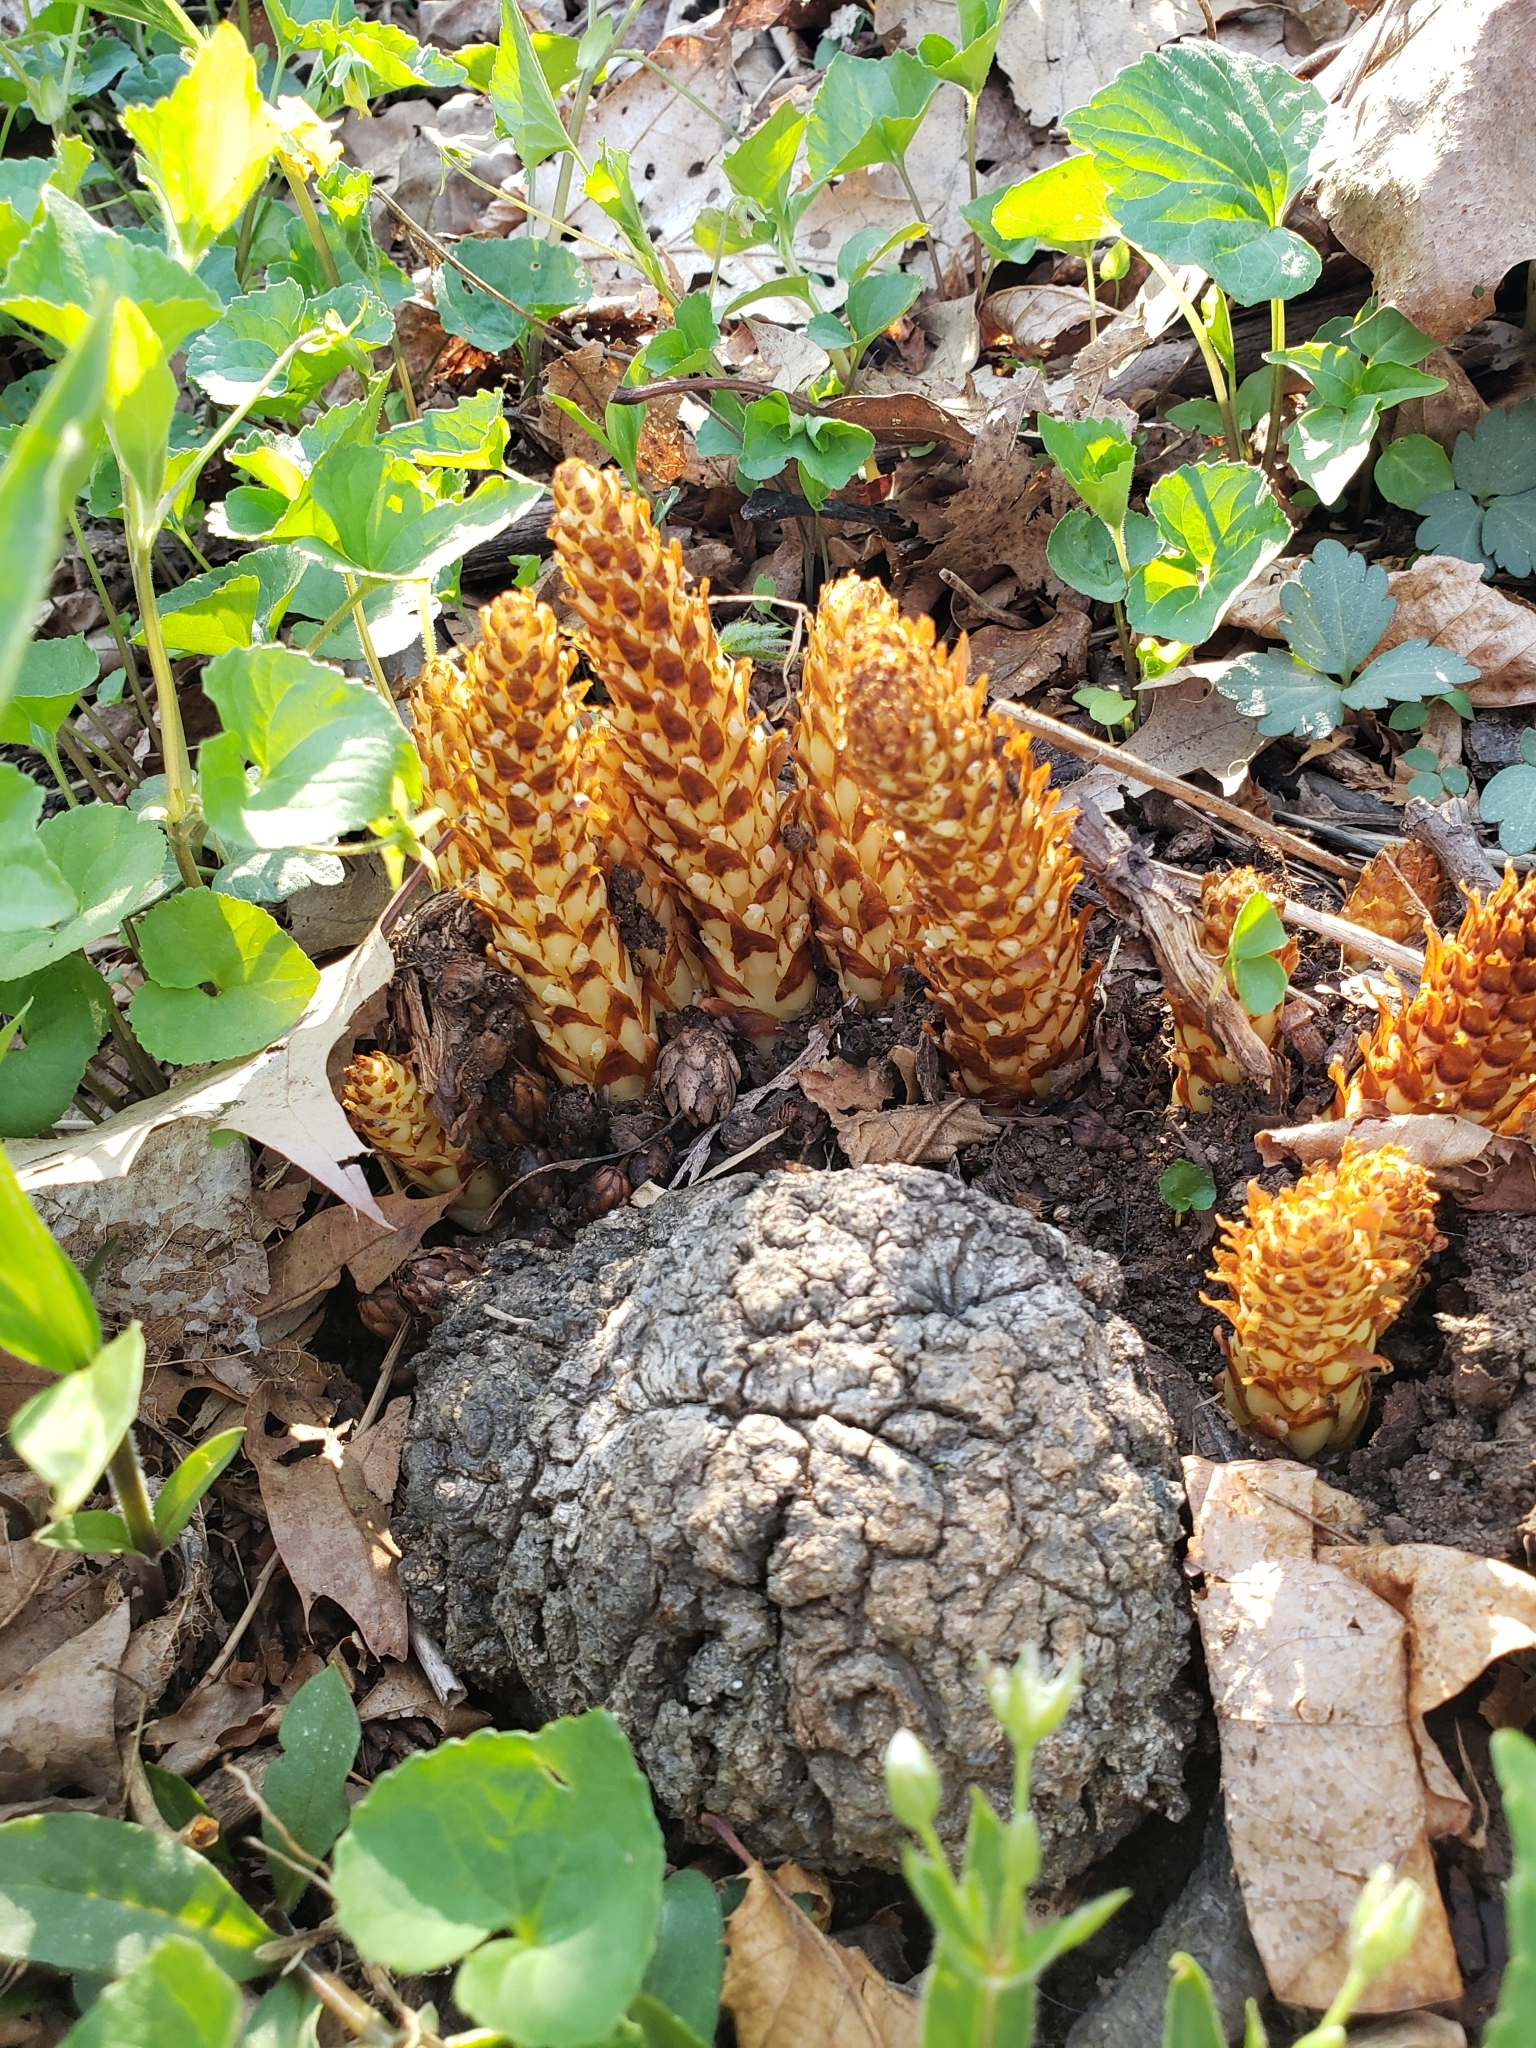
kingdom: Plantae
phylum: Tracheophyta
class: Magnoliopsida
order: Lamiales
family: Orobanchaceae
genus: Conopholis
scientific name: Conopholis americana
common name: American cancer-root
